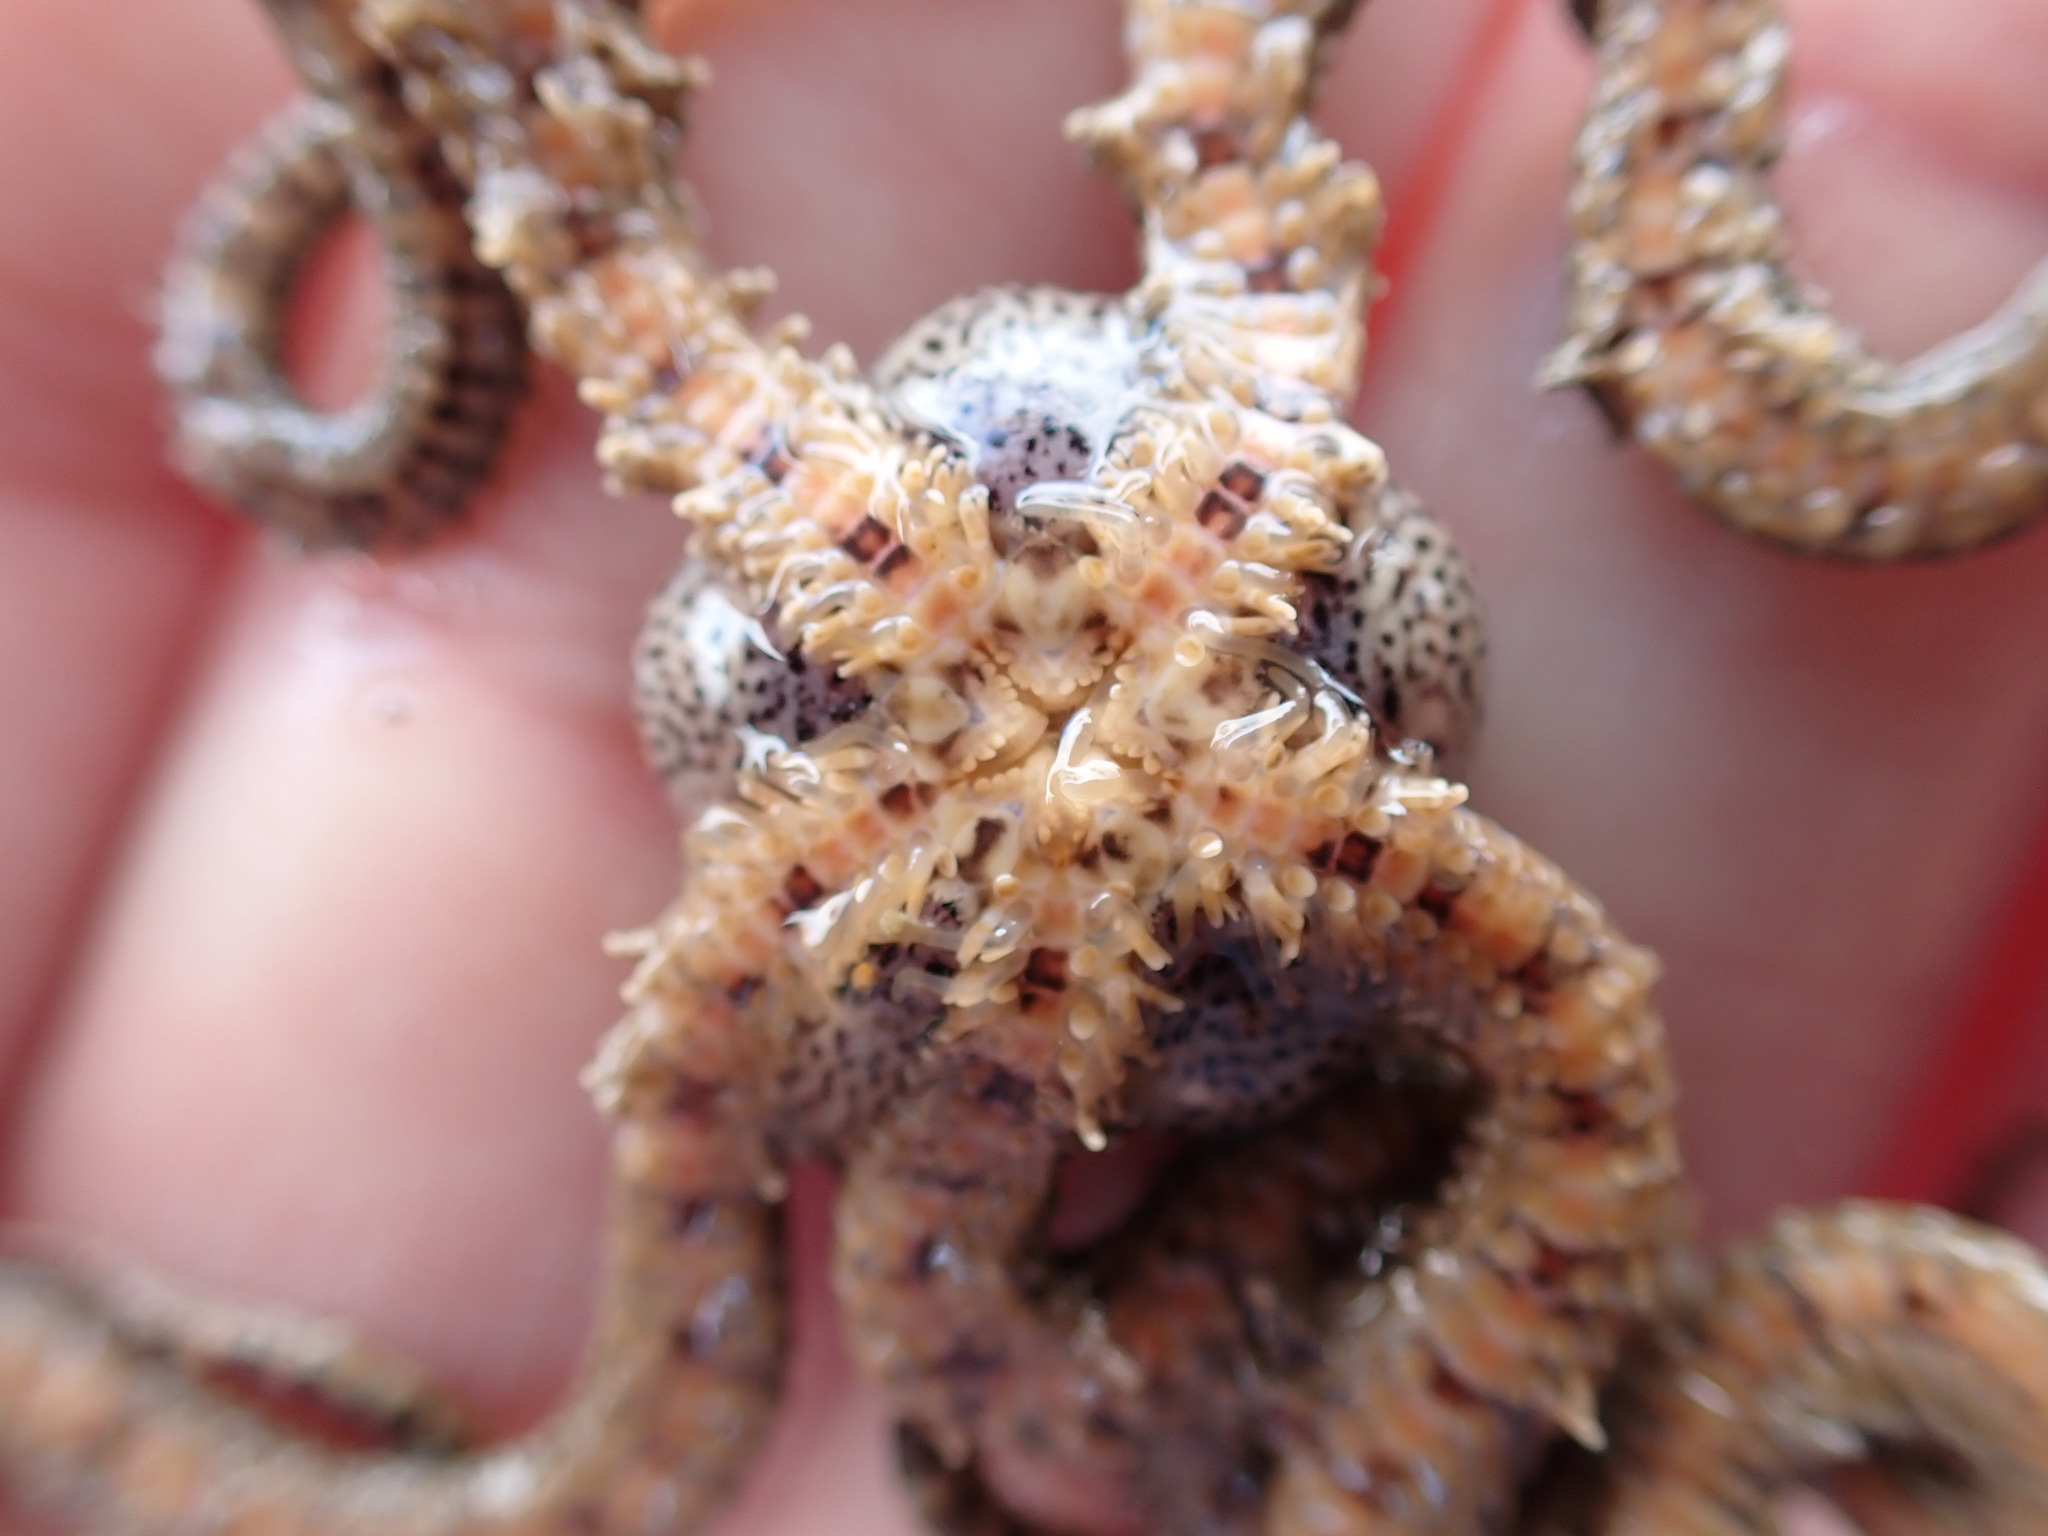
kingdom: Animalia
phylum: Echinodermata
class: Ophiuroidea
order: Amphilepidida
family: Ophionereididae
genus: Ophionereis
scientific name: Ophionereis fasciata
